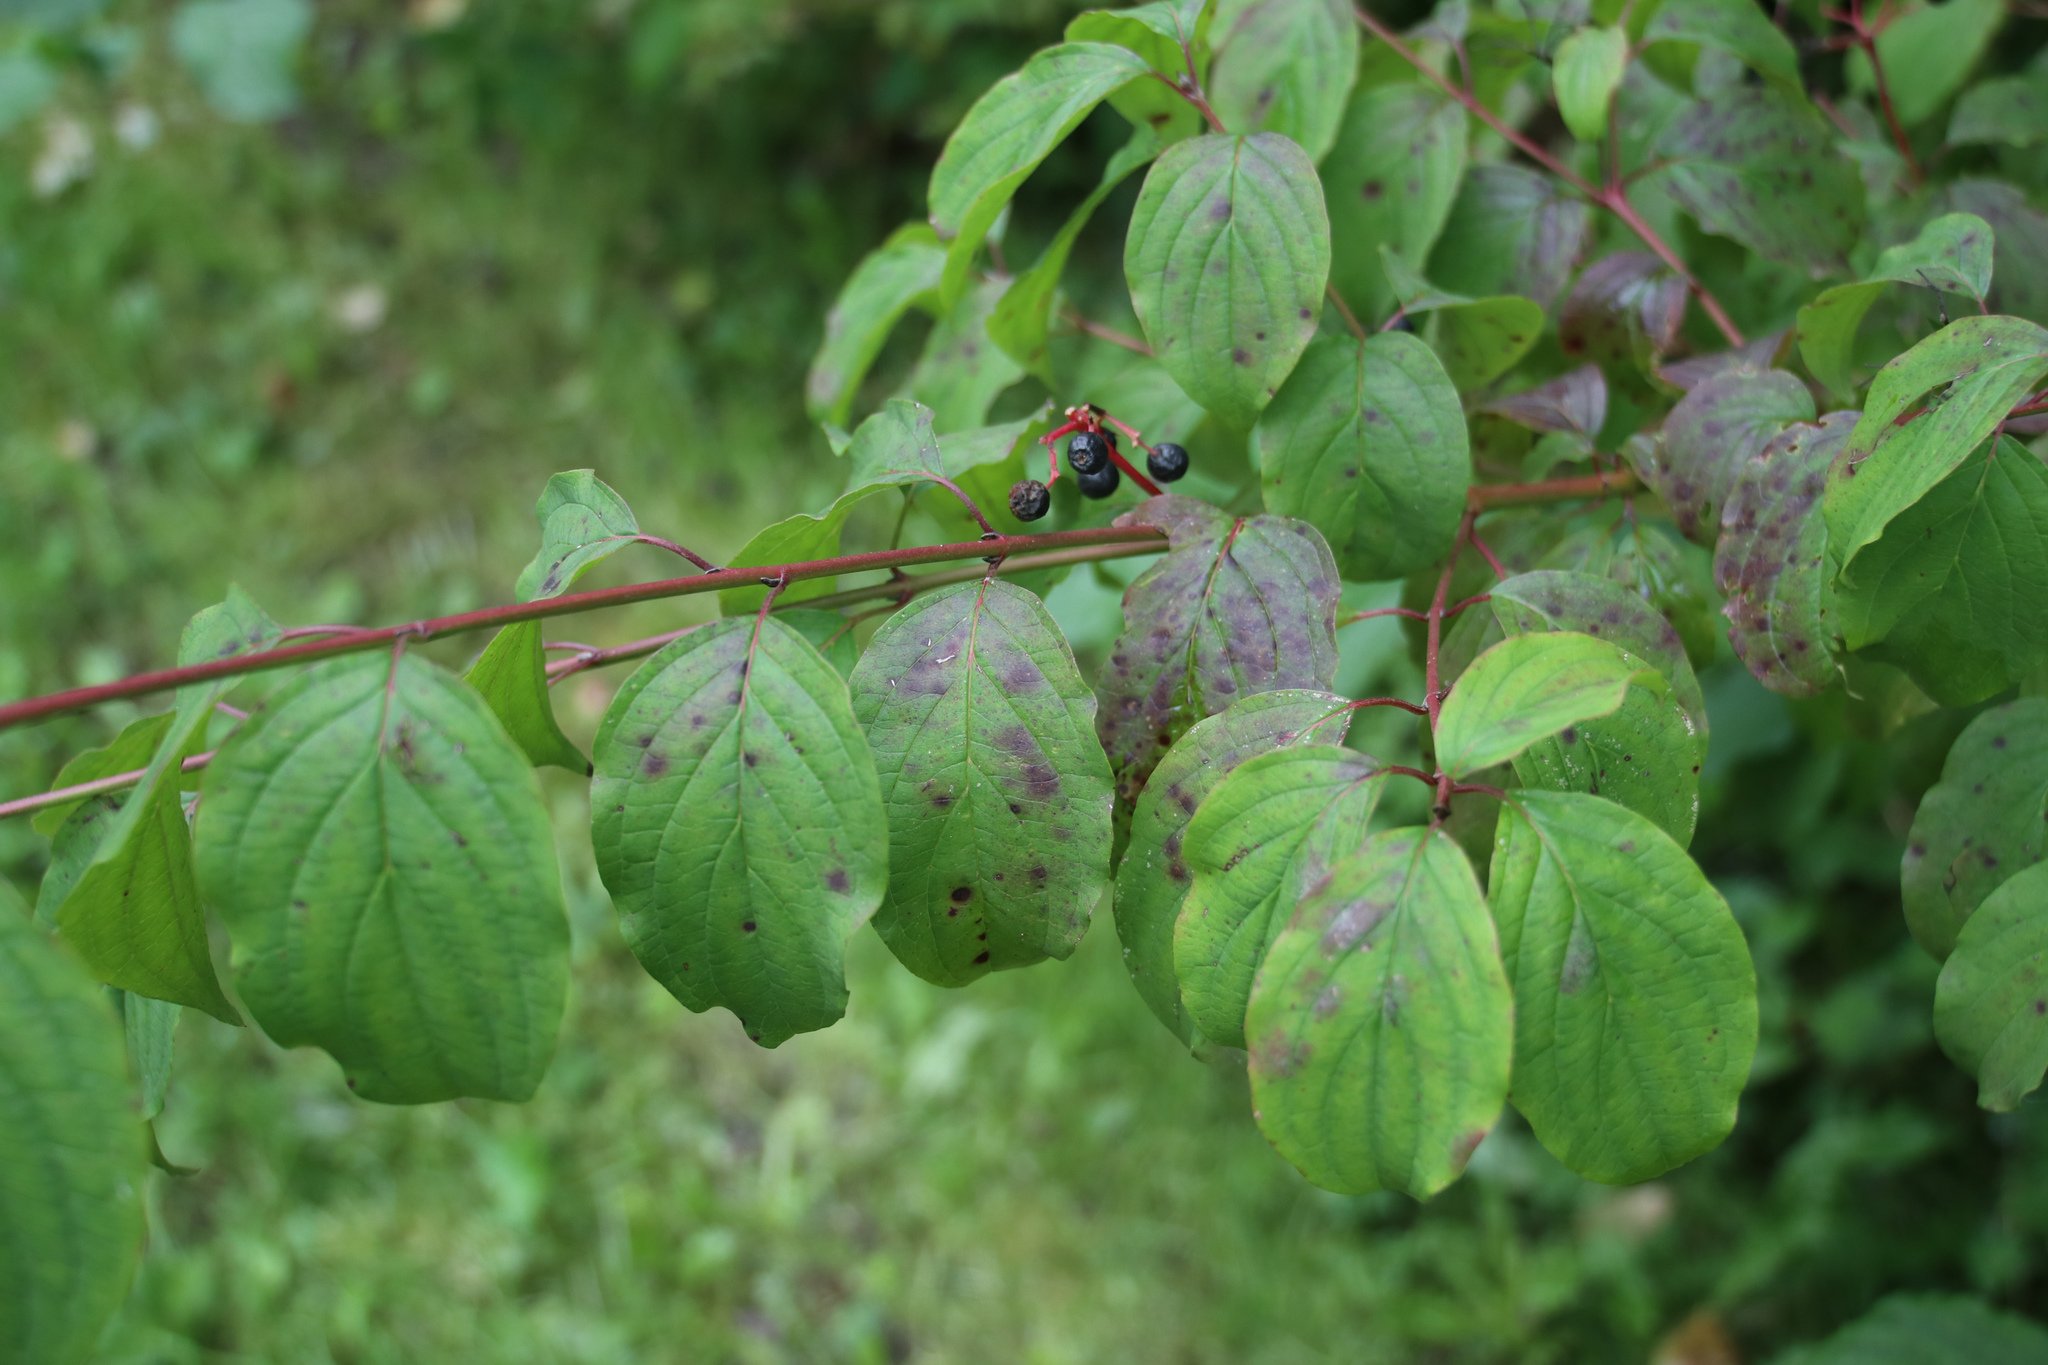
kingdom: Plantae
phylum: Tracheophyta
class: Magnoliopsida
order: Cornales
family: Cornaceae
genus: Cornus
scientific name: Cornus sanguinea
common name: Dogwood
